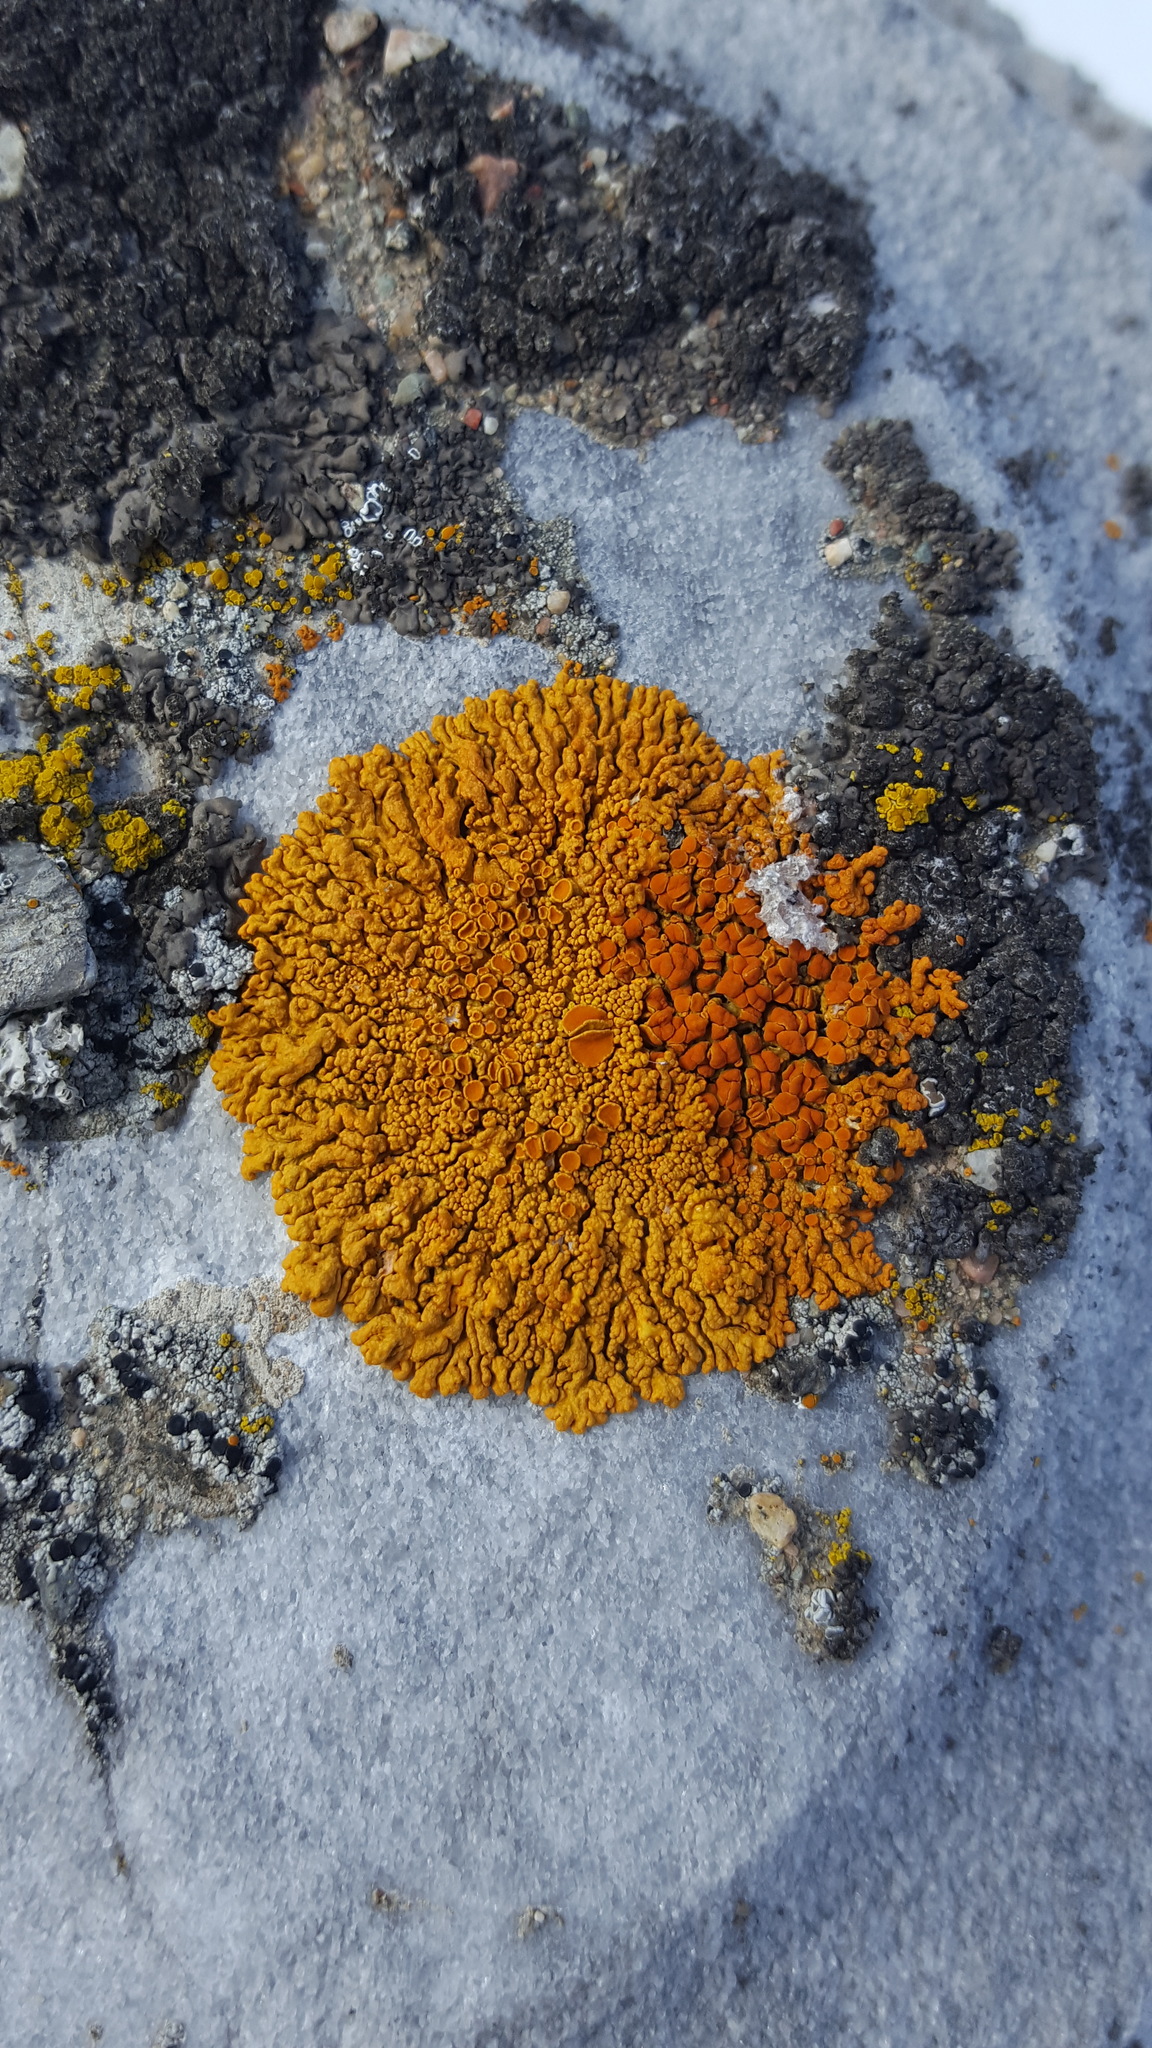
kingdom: Fungi
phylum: Ascomycota
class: Lecanoromycetes
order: Teloschistales
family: Teloschistaceae
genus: Xanthoria
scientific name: Xanthoria elegans
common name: Elegant sunburst lichen
